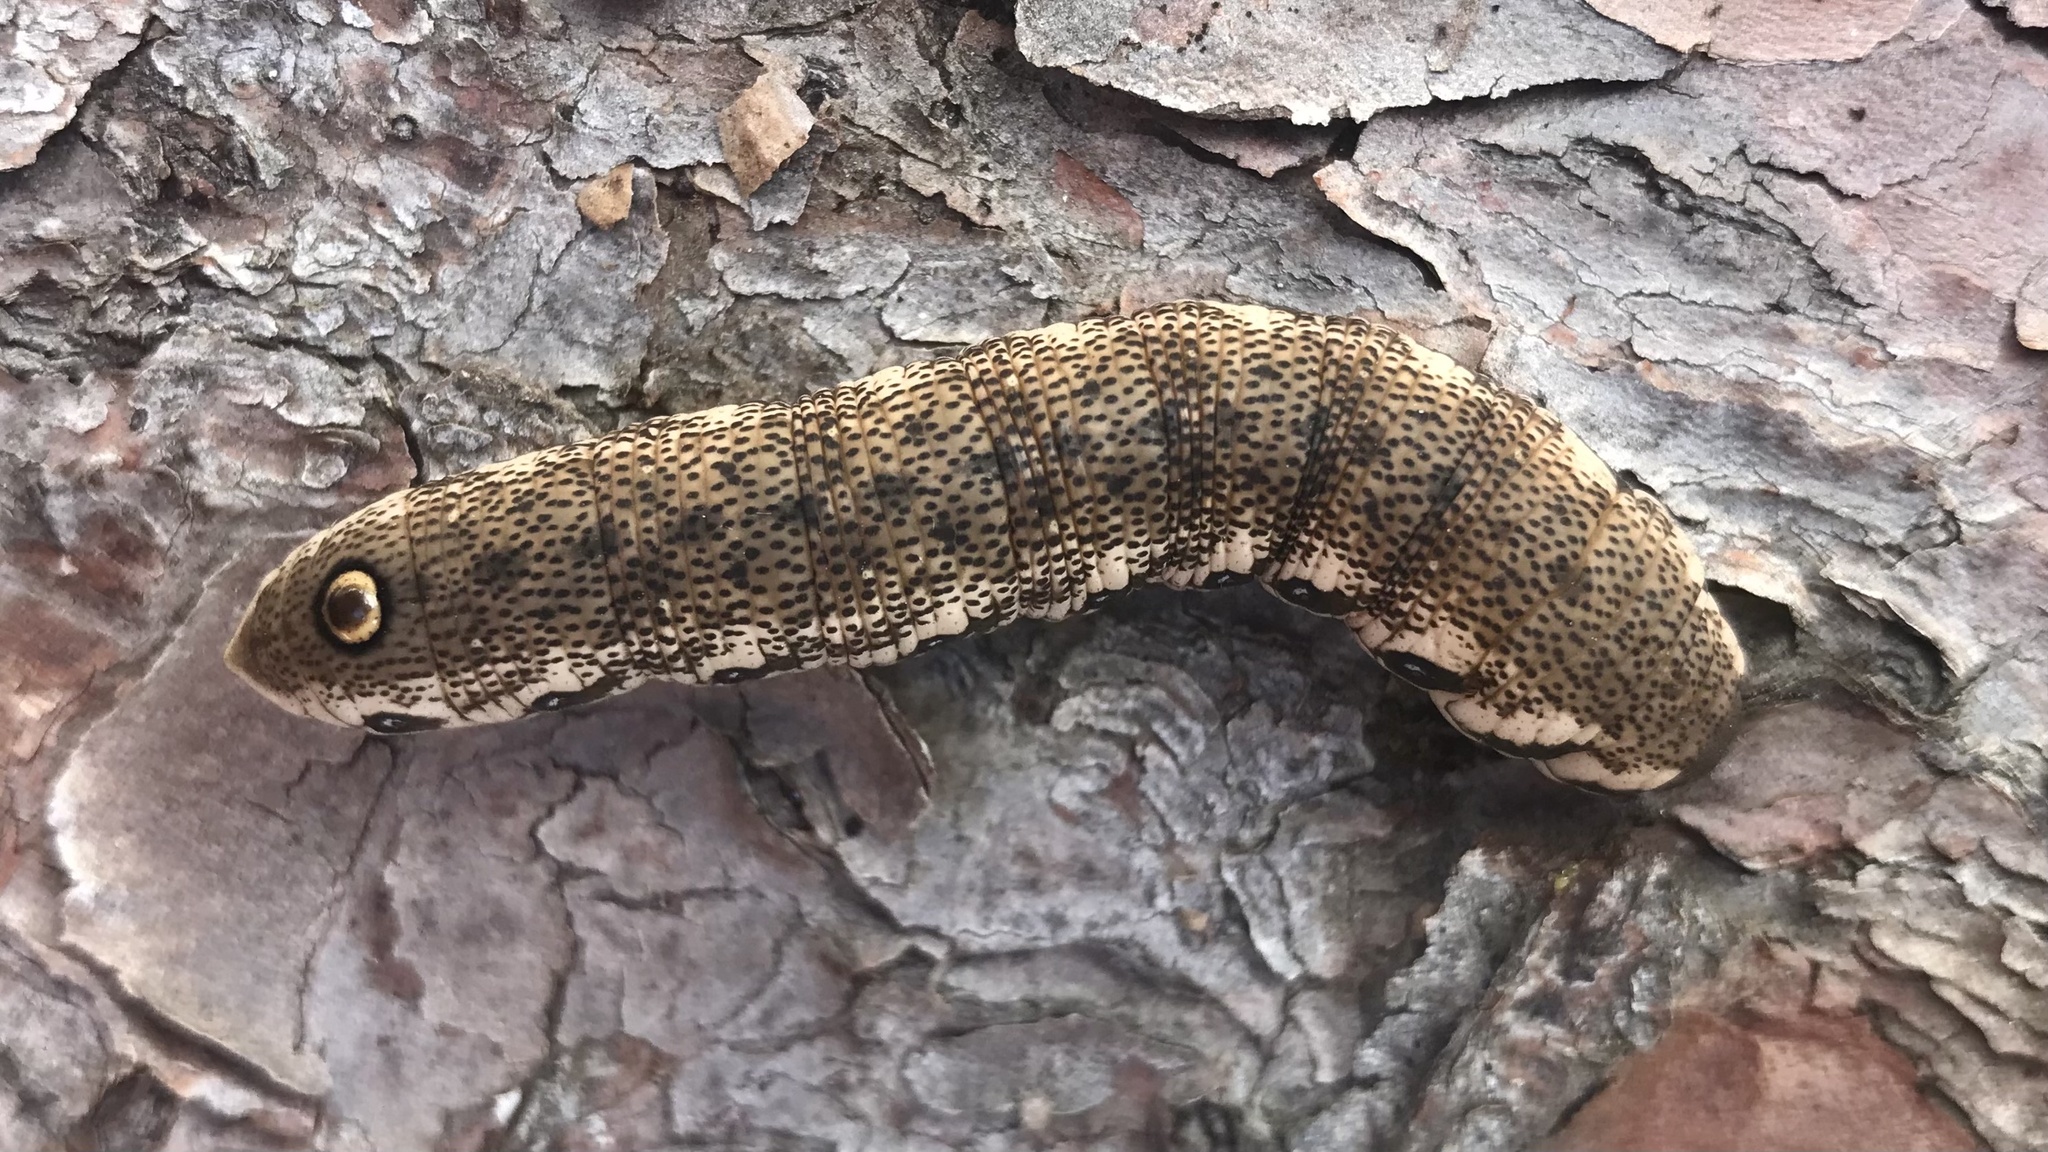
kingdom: Animalia
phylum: Arthropoda
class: Insecta
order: Lepidoptera
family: Sphingidae
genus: Proserpinus
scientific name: Proserpinus proserpina
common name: Willowherb hawkmoth
